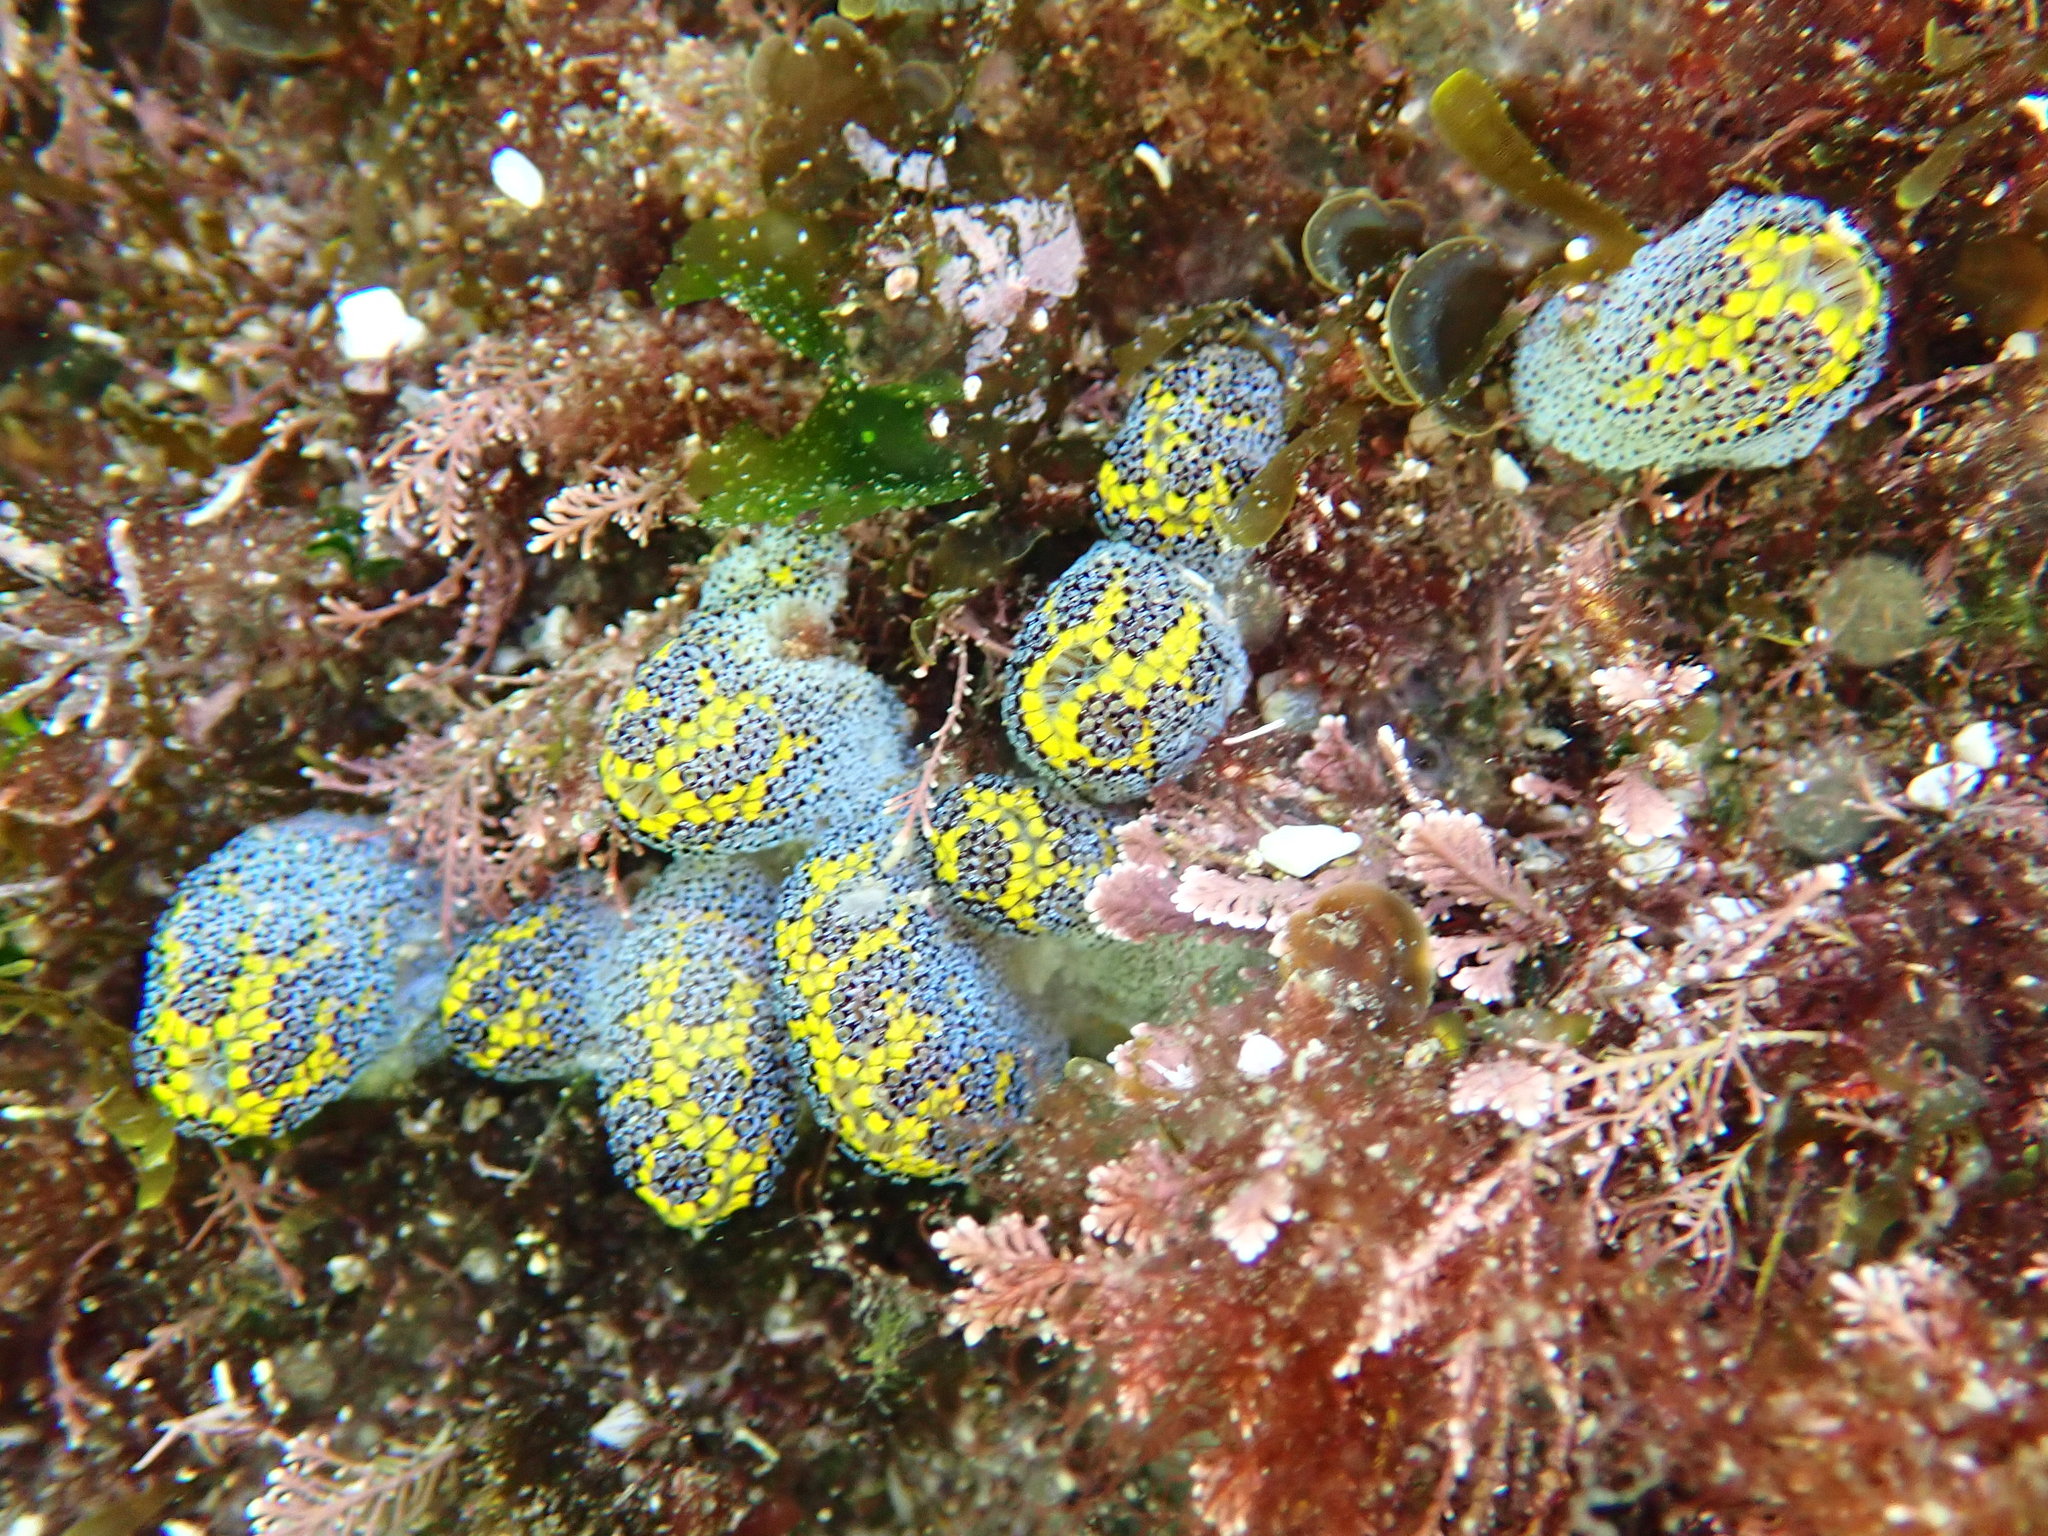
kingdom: Animalia
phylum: Chordata
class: Ascidiacea
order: Stolidobranchia
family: Styelidae
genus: Botrylloides
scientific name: Botrylloides magnicoecus
